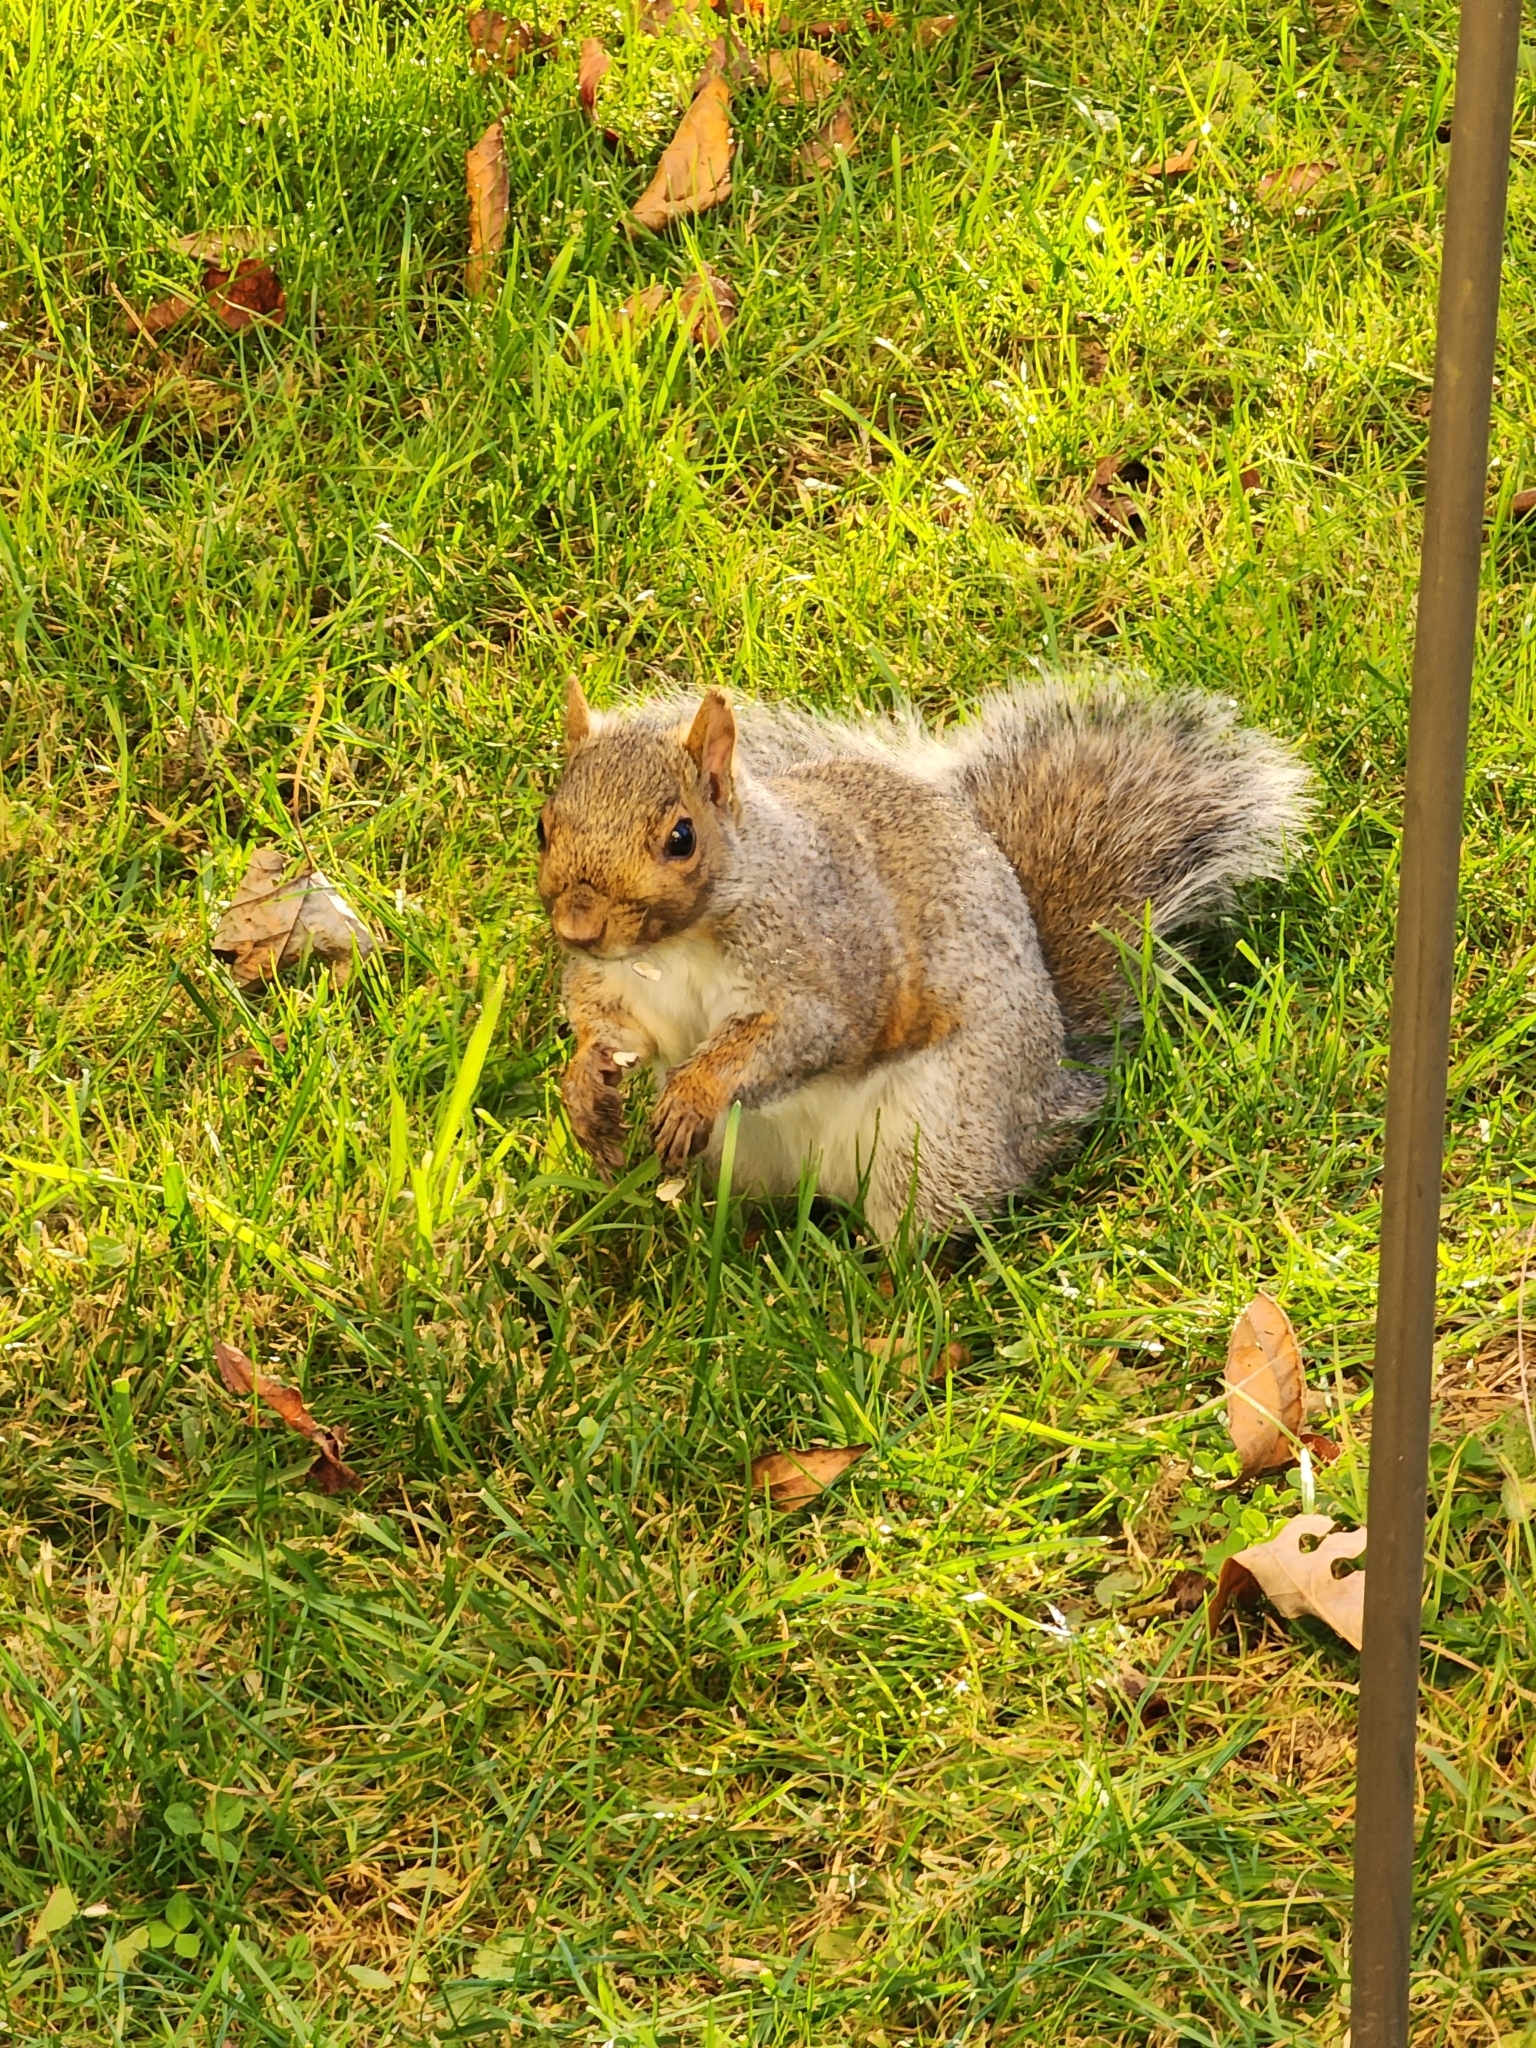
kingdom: Animalia
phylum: Chordata
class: Mammalia
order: Rodentia
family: Sciuridae
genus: Sciurus
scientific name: Sciurus carolinensis
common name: Eastern gray squirrel
